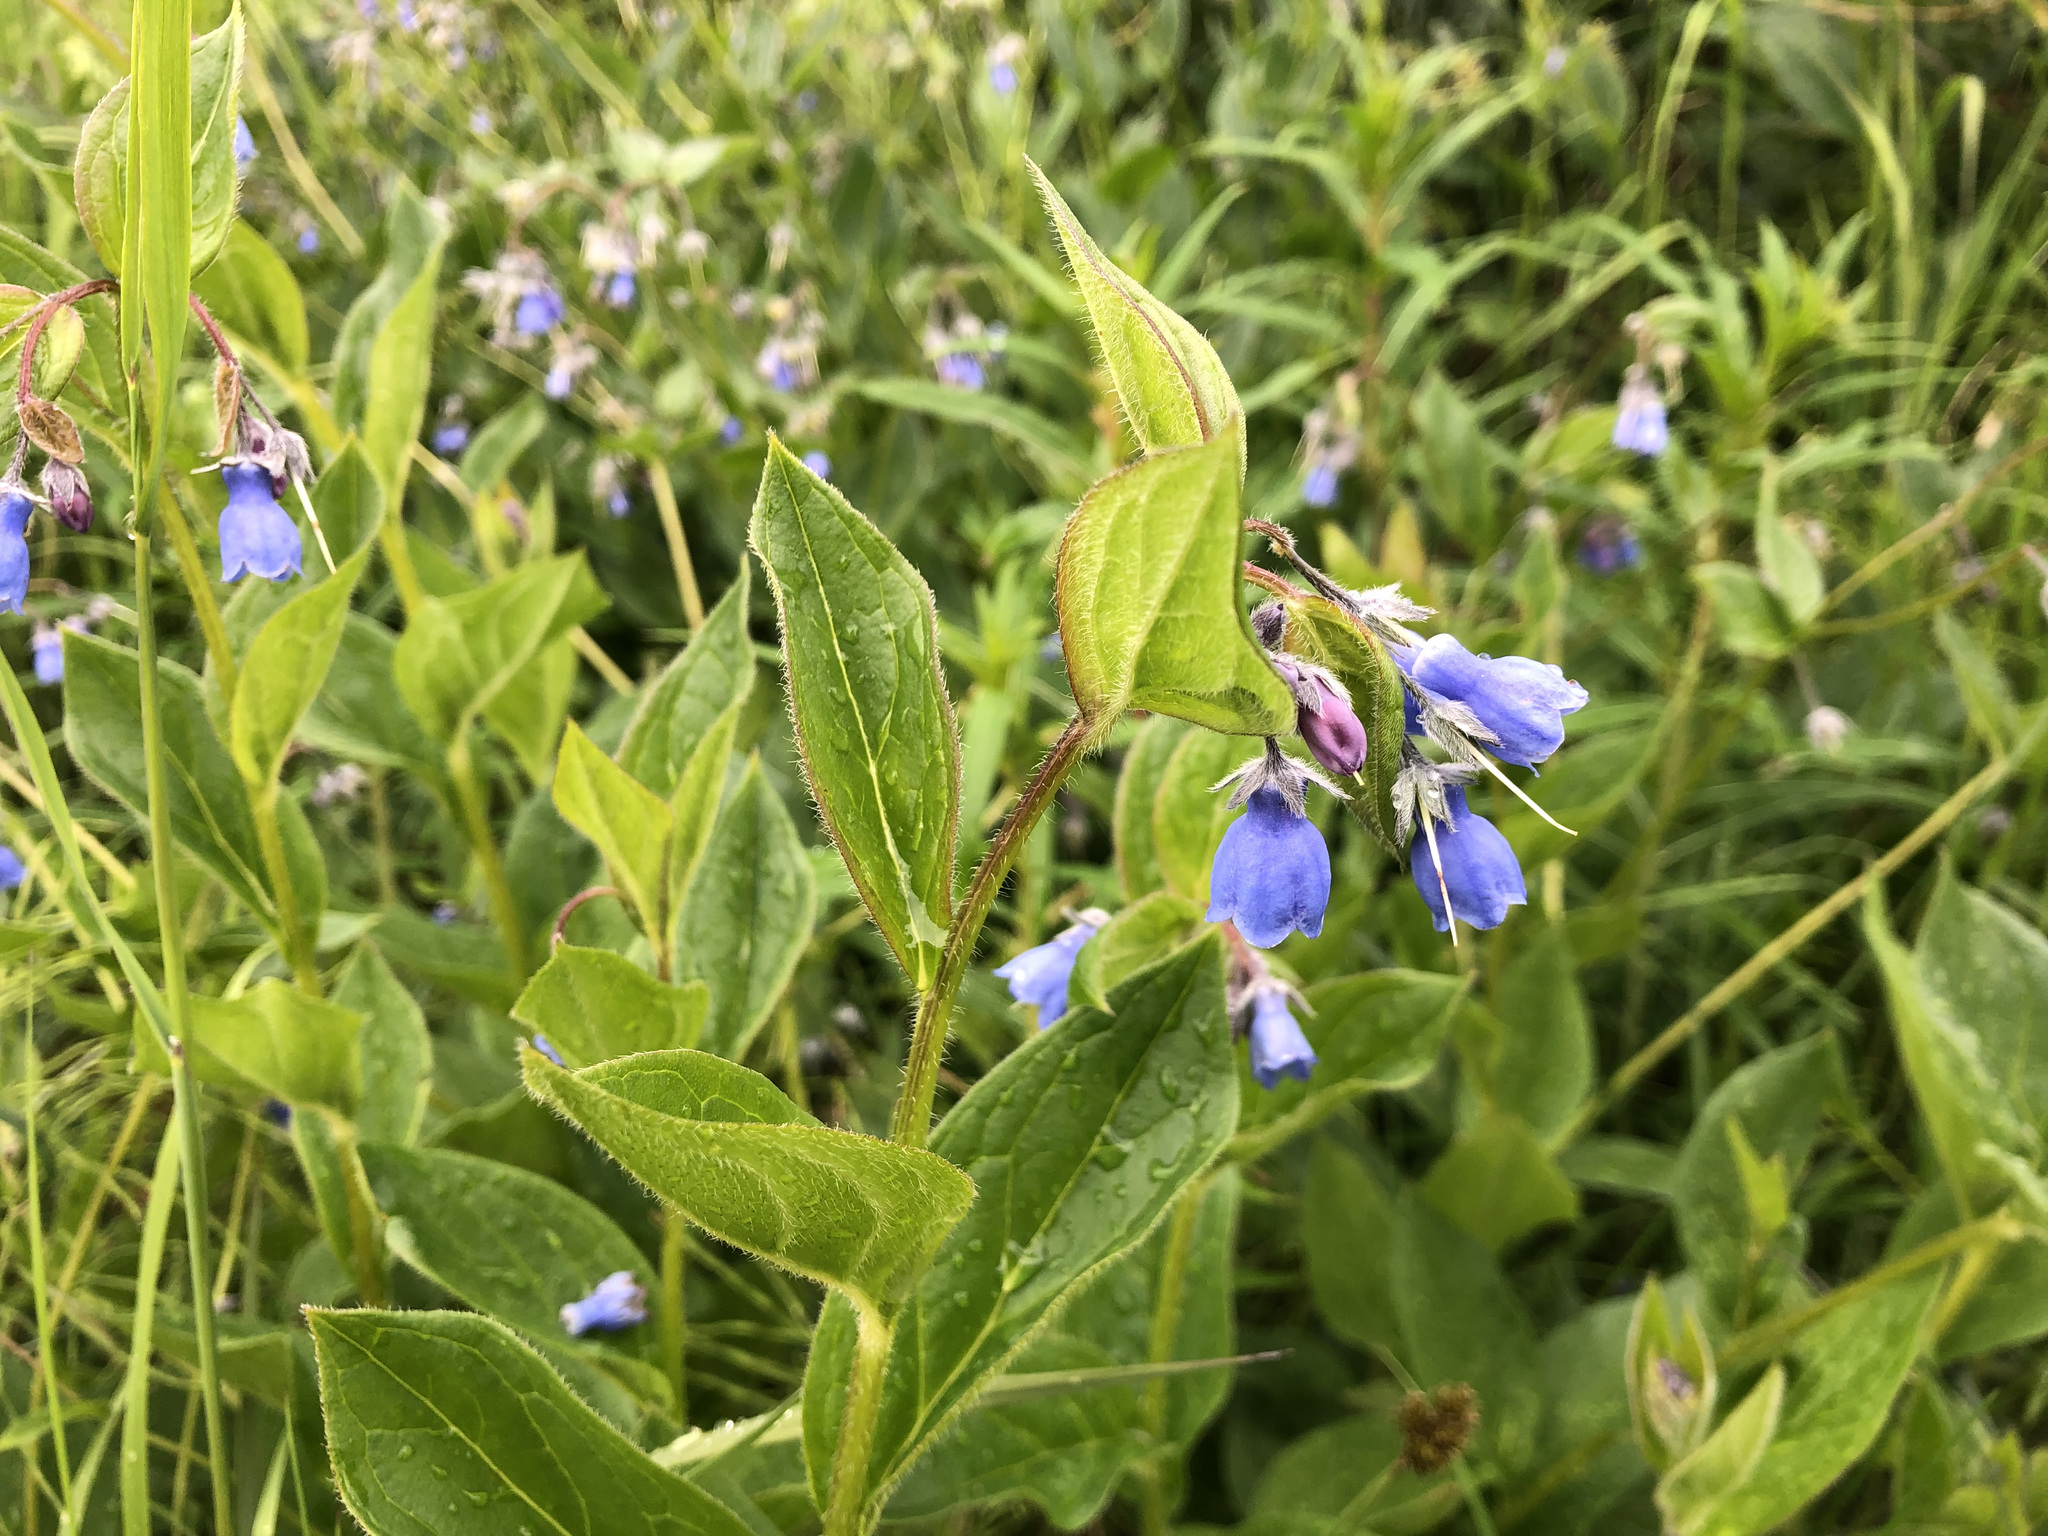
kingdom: Plantae
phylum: Tracheophyta
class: Magnoliopsida
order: Boraginales
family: Boraginaceae
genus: Mertensia
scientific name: Mertensia paniculata
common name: Panicled bluebells
